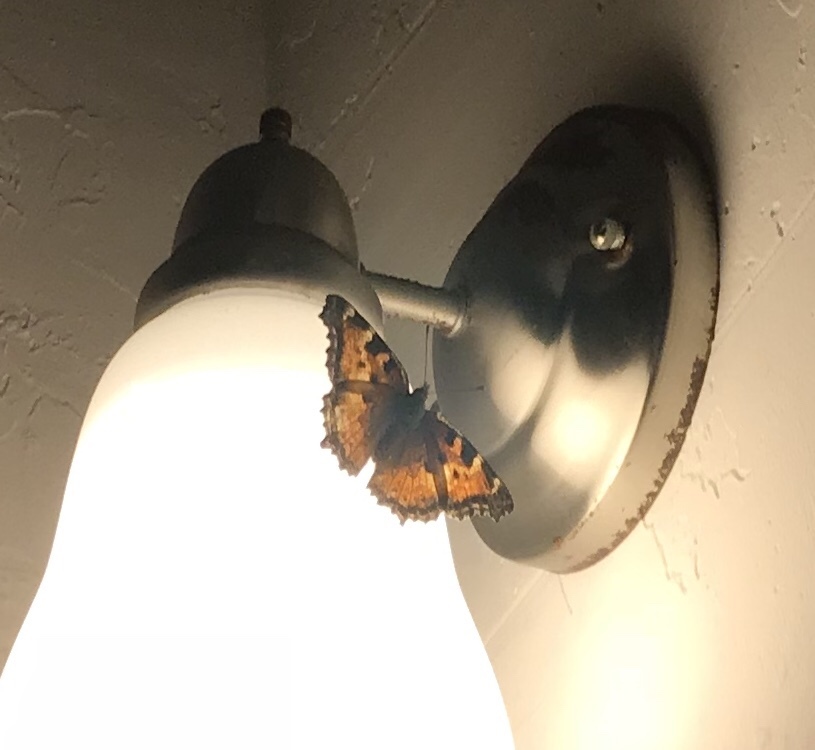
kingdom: Animalia
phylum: Arthropoda
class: Insecta
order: Lepidoptera
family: Nymphalidae
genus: Nymphalis
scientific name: Nymphalis californica
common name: California tortoiseshell
